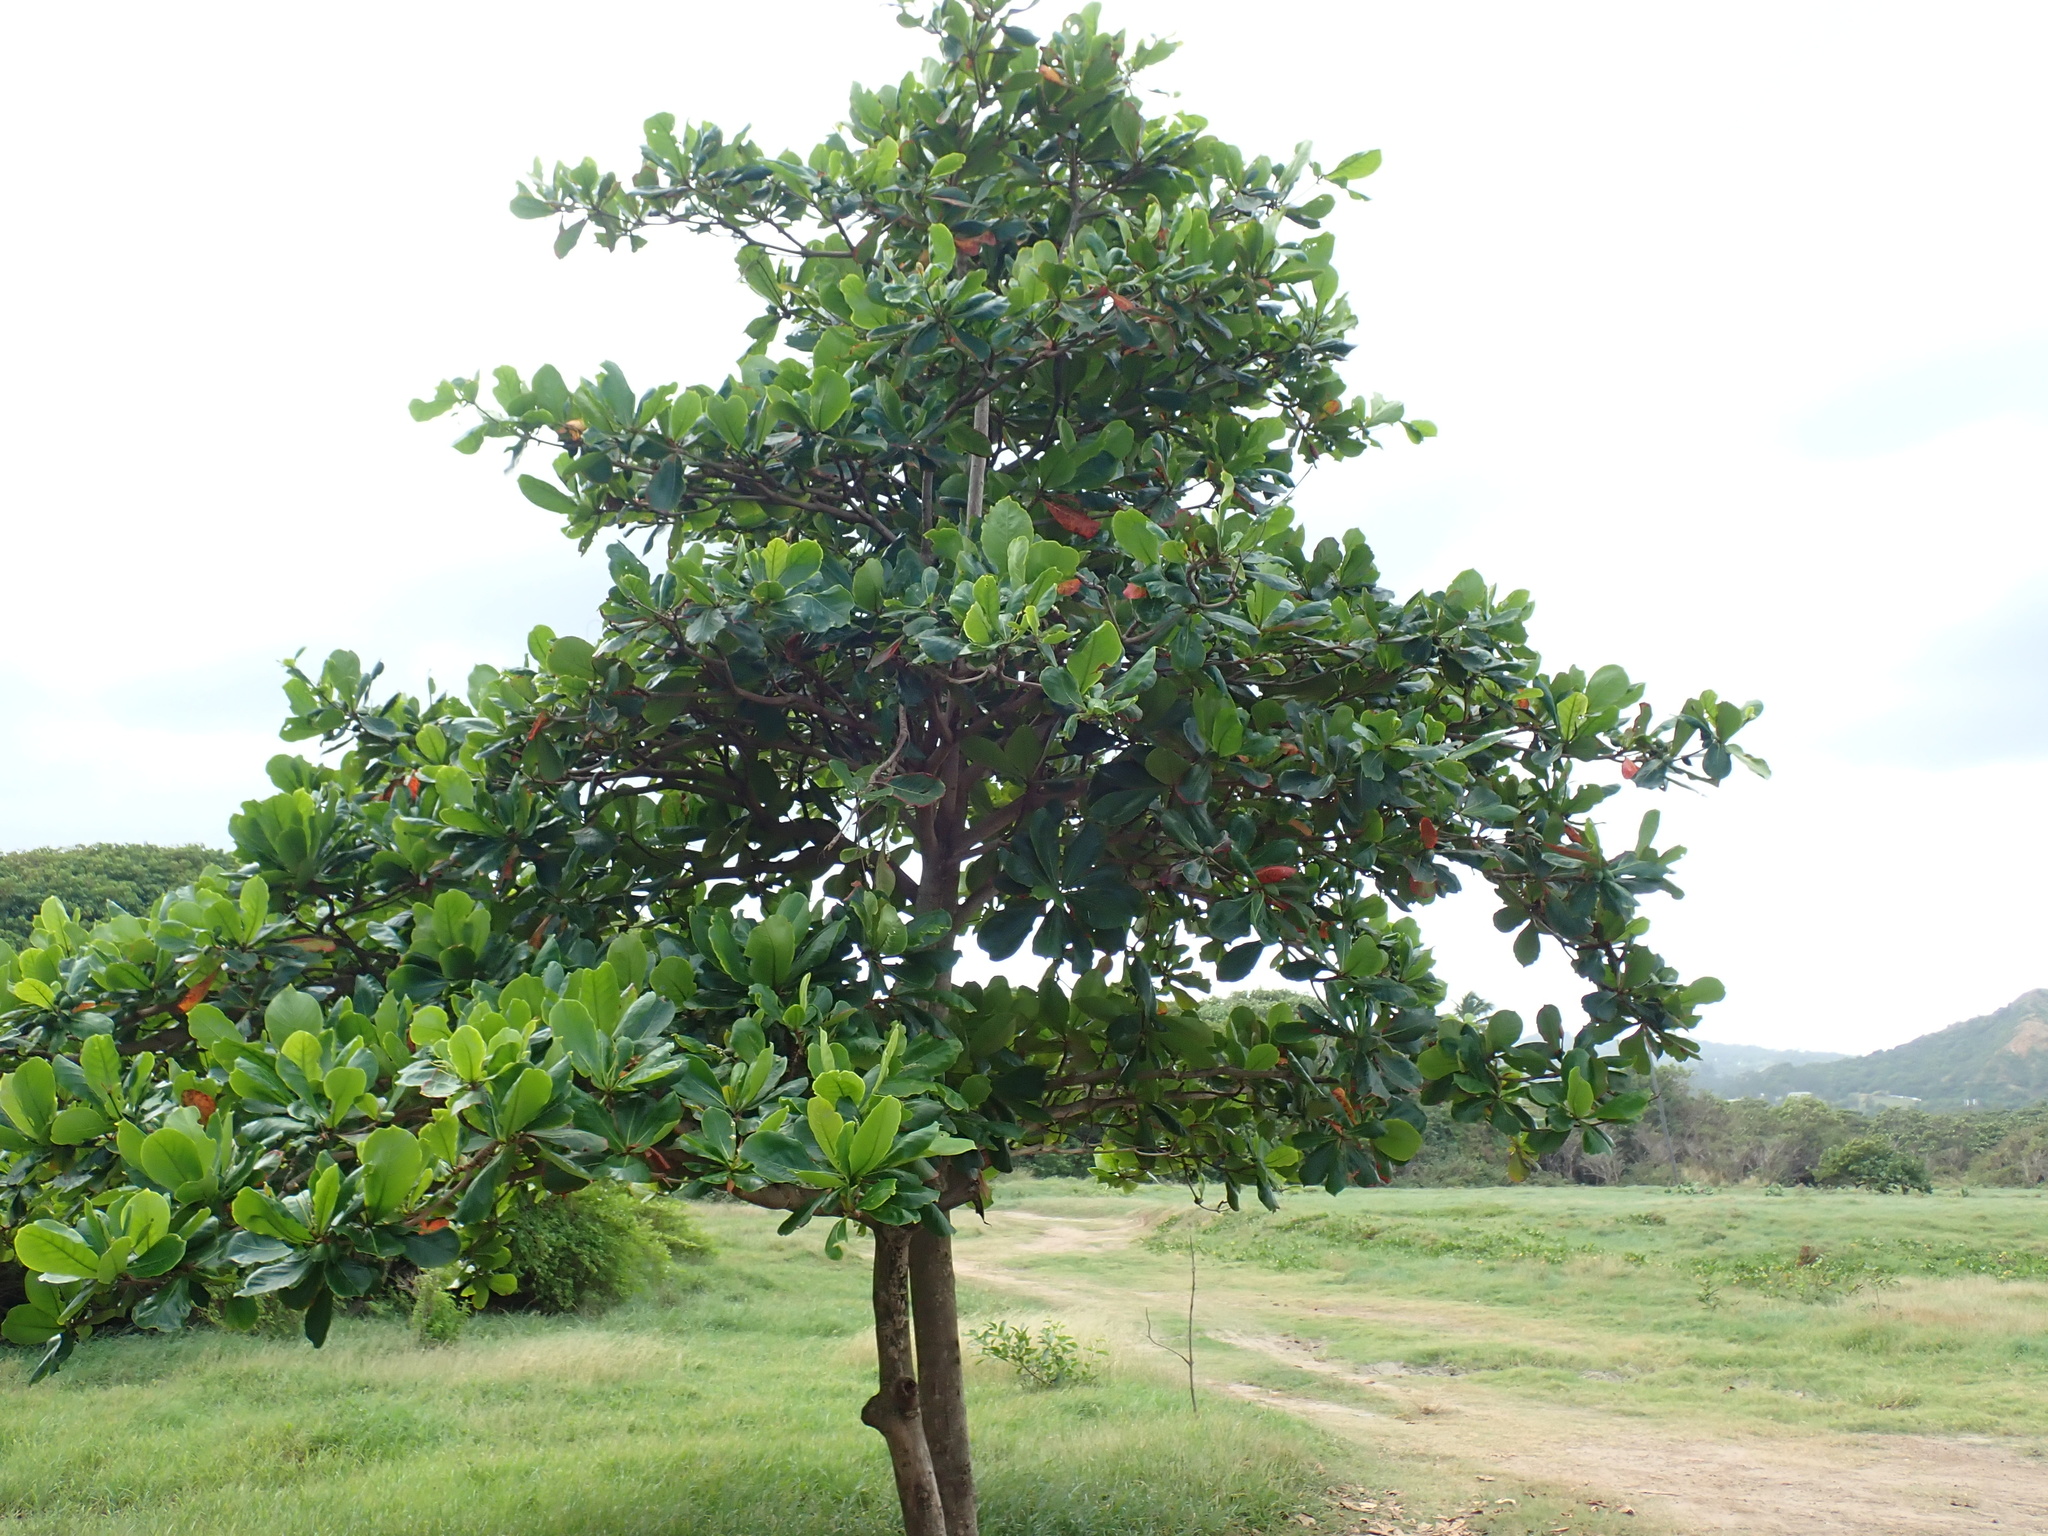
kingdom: Plantae
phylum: Tracheophyta
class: Magnoliopsida
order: Myrtales
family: Combretaceae
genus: Terminalia
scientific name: Terminalia catappa
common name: Tropical almond
